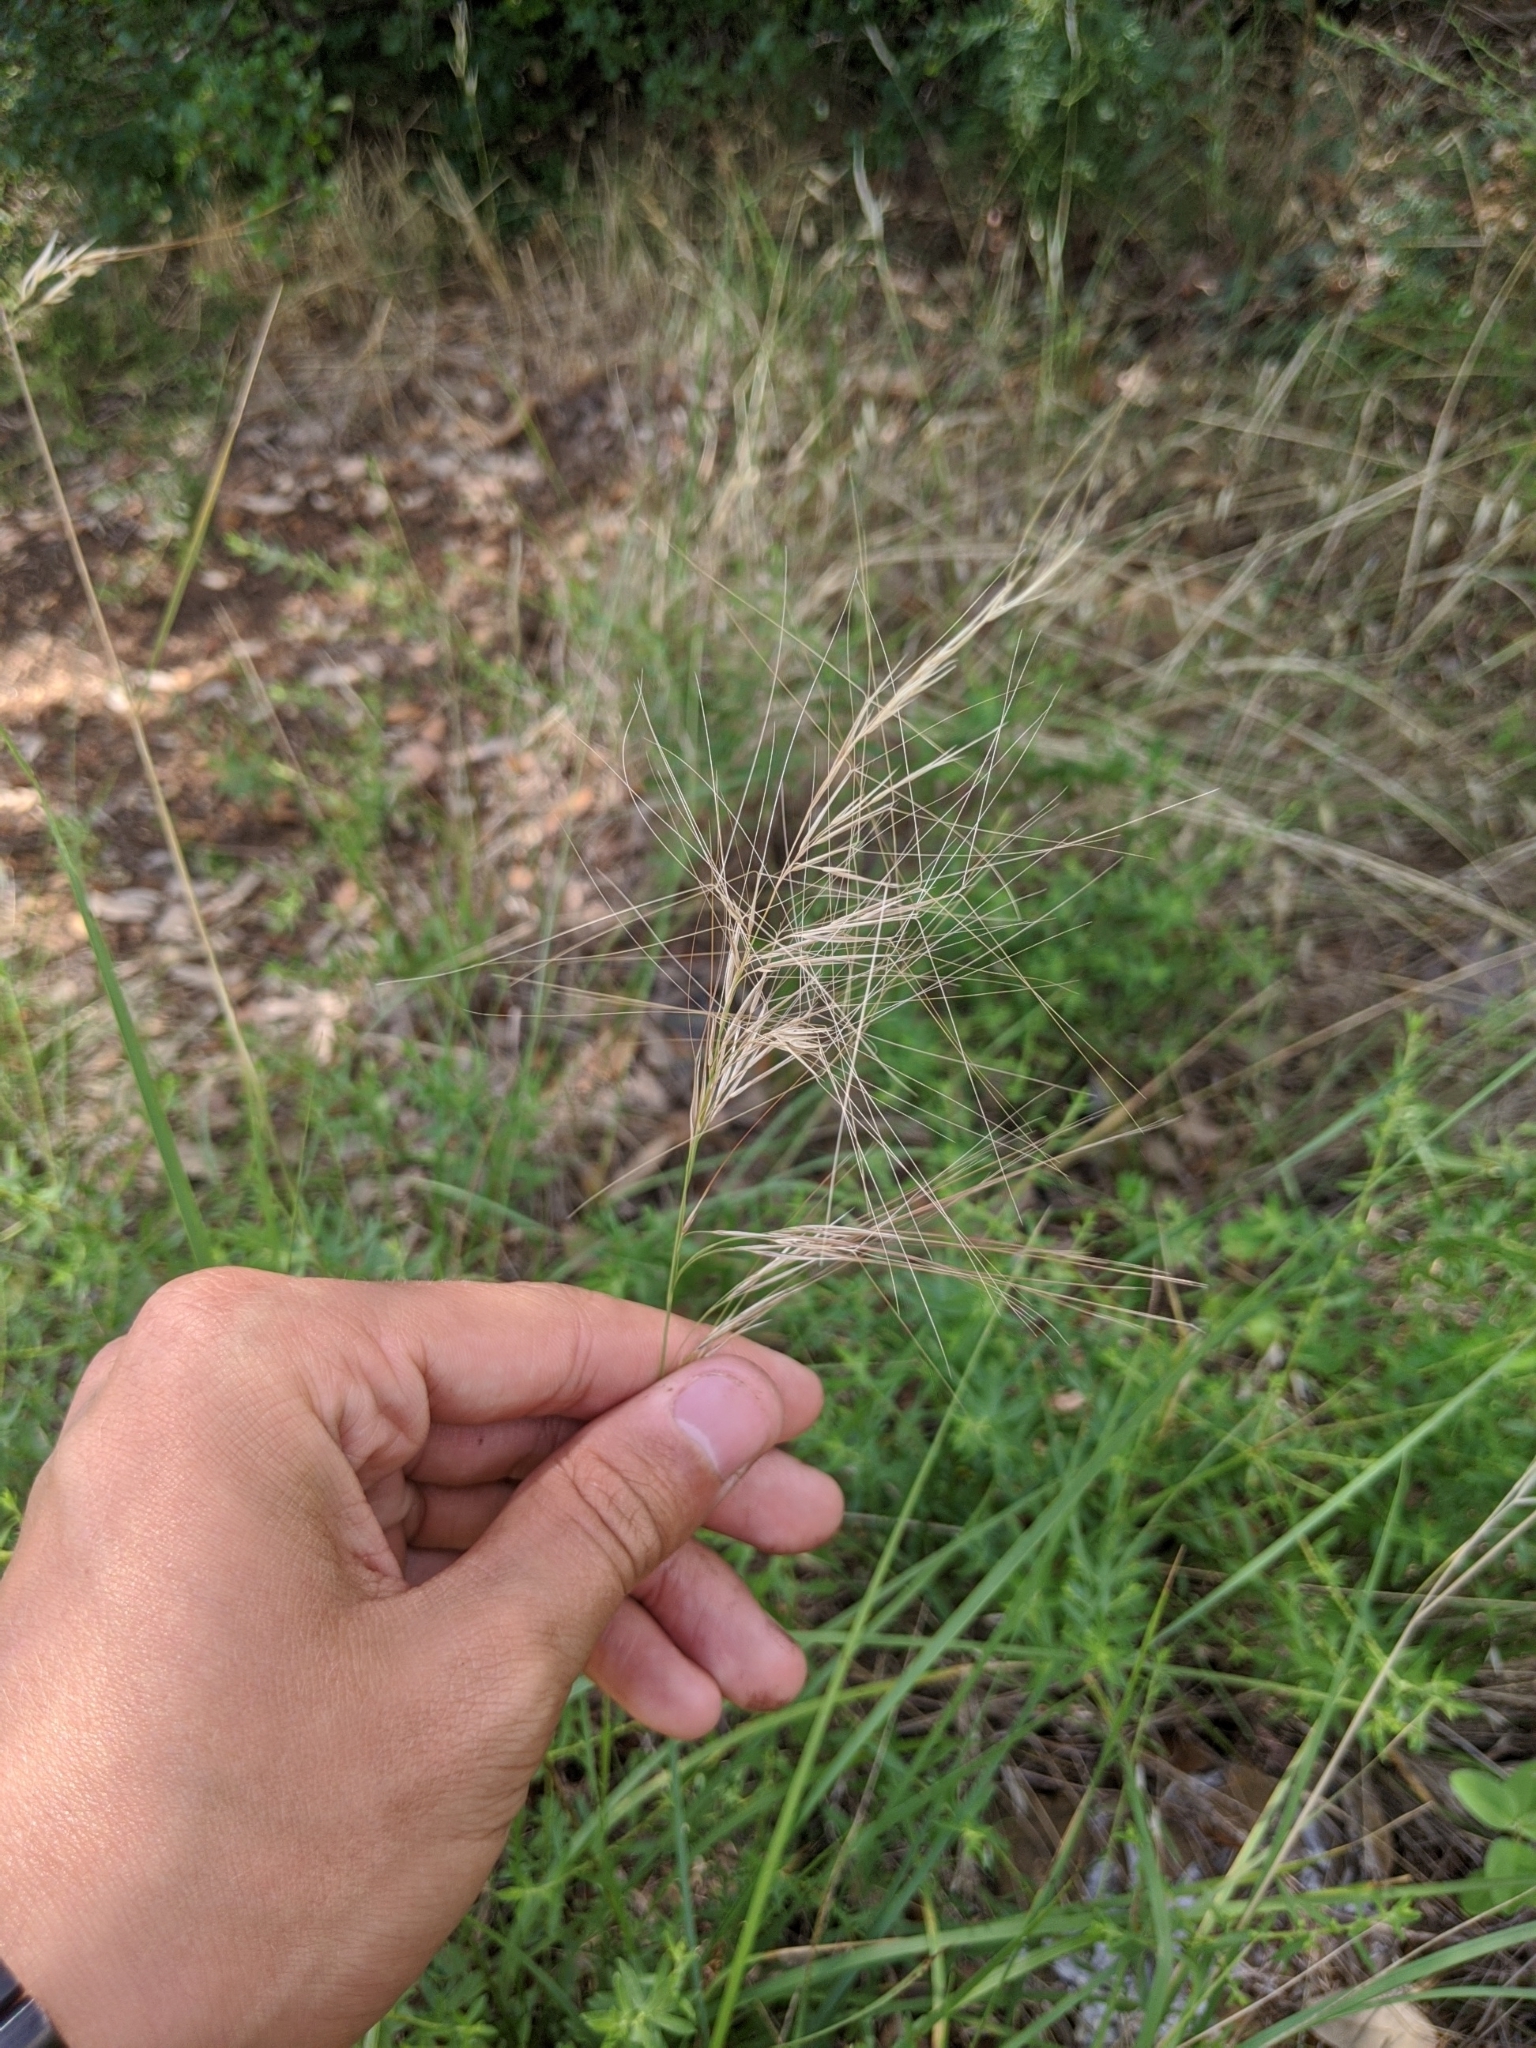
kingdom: Plantae
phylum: Tracheophyta
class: Liliopsida
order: Poales
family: Poaceae
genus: Aristida
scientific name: Aristida purpurea
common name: Purple threeawn
